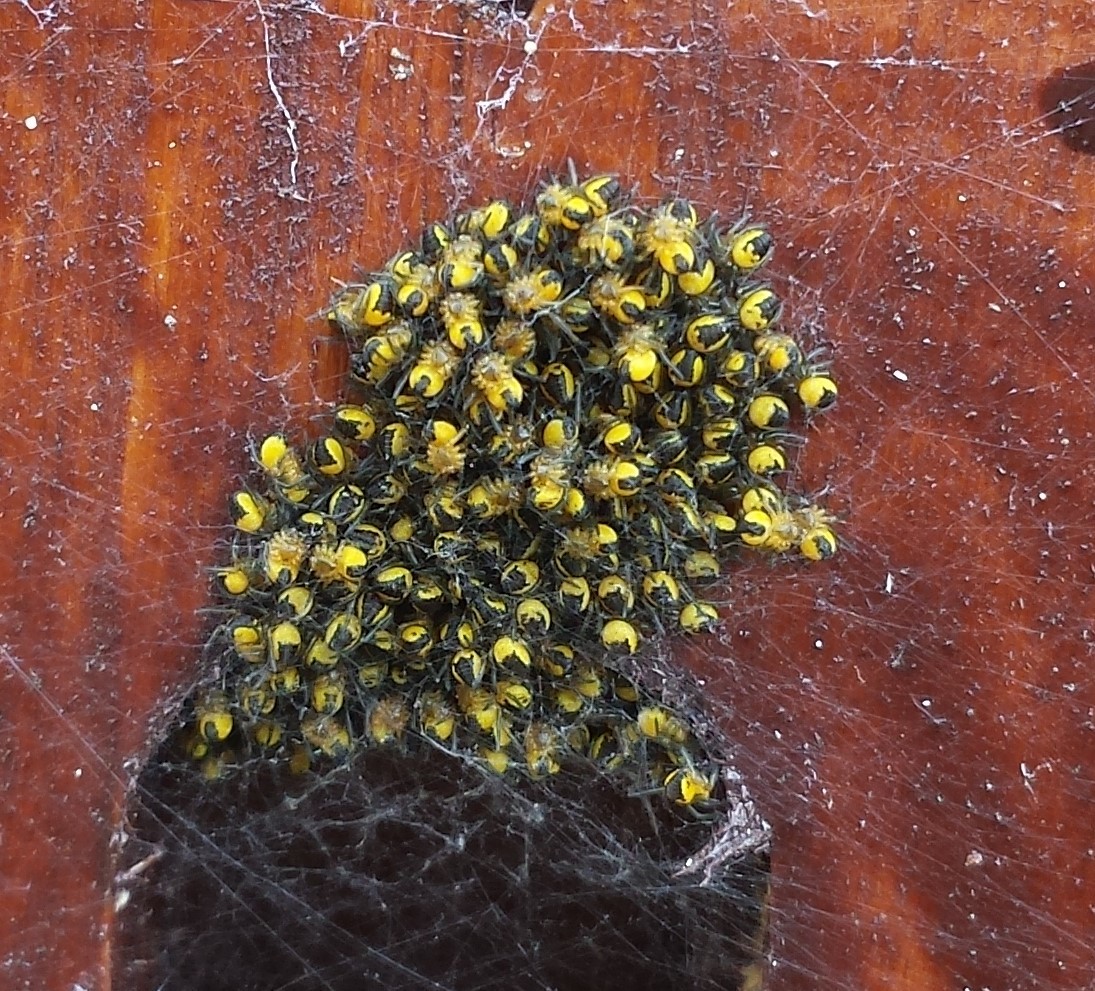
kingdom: Animalia
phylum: Arthropoda
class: Arachnida
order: Araneae
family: Araneidae
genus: Araneus
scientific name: Araneus diadematus
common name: Cross orbweaver
